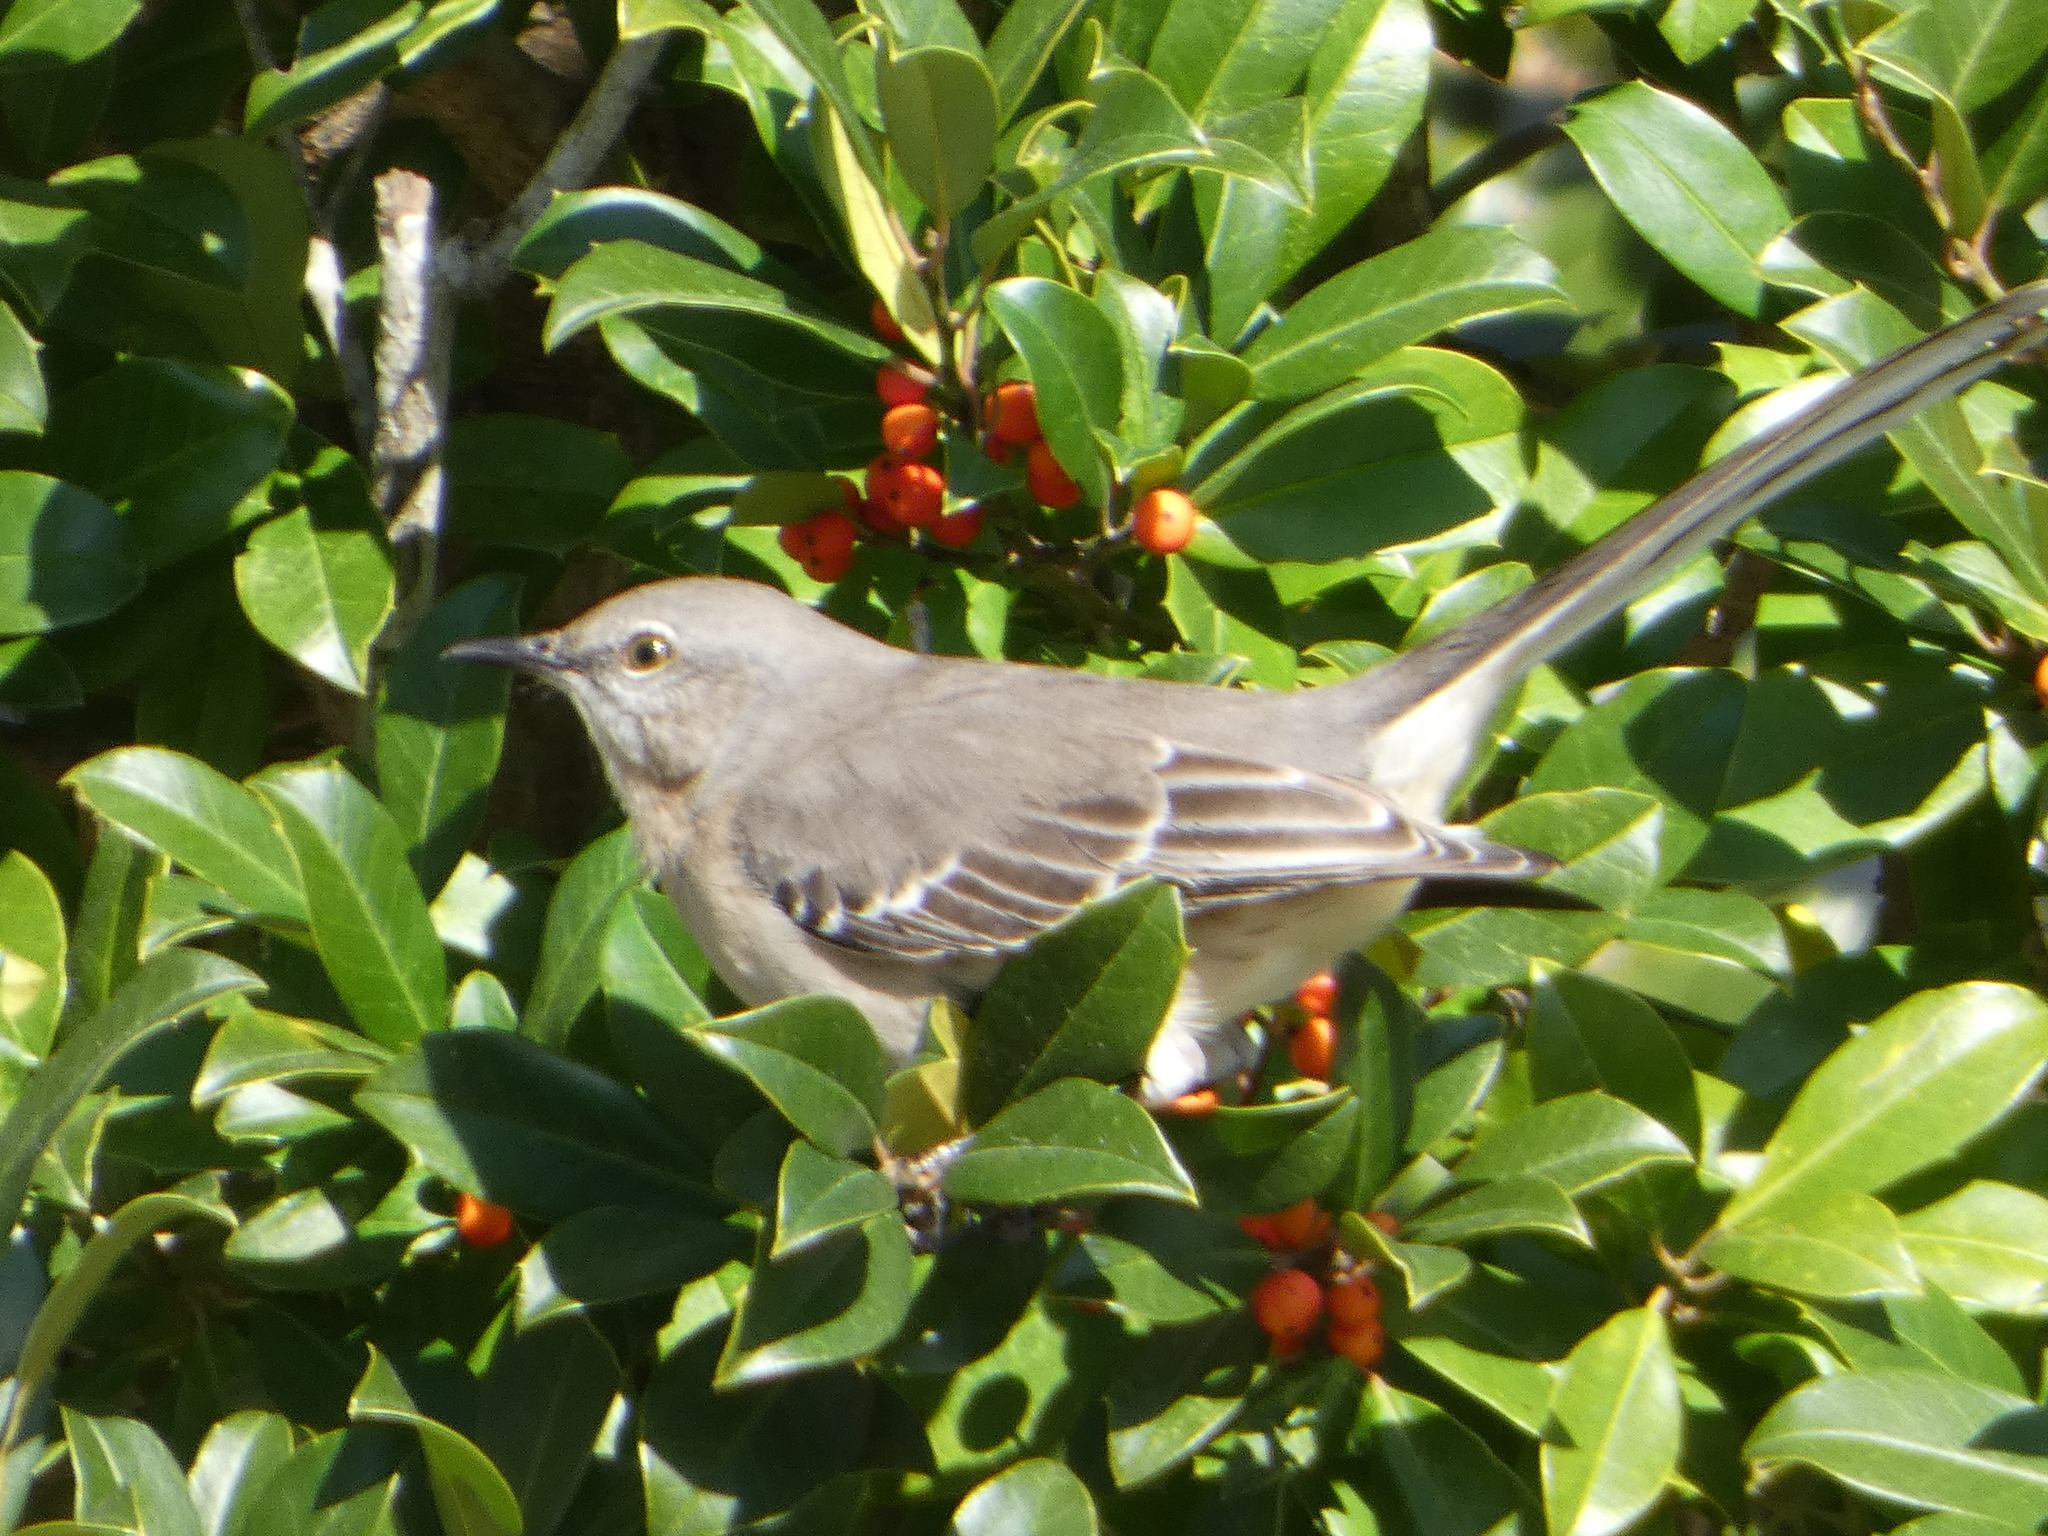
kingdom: Animalia
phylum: Chordata
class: Aves
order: Passeriformes
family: Mimidae
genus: Mimus
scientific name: Mimus polyglottos
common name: Northern mockingbird
